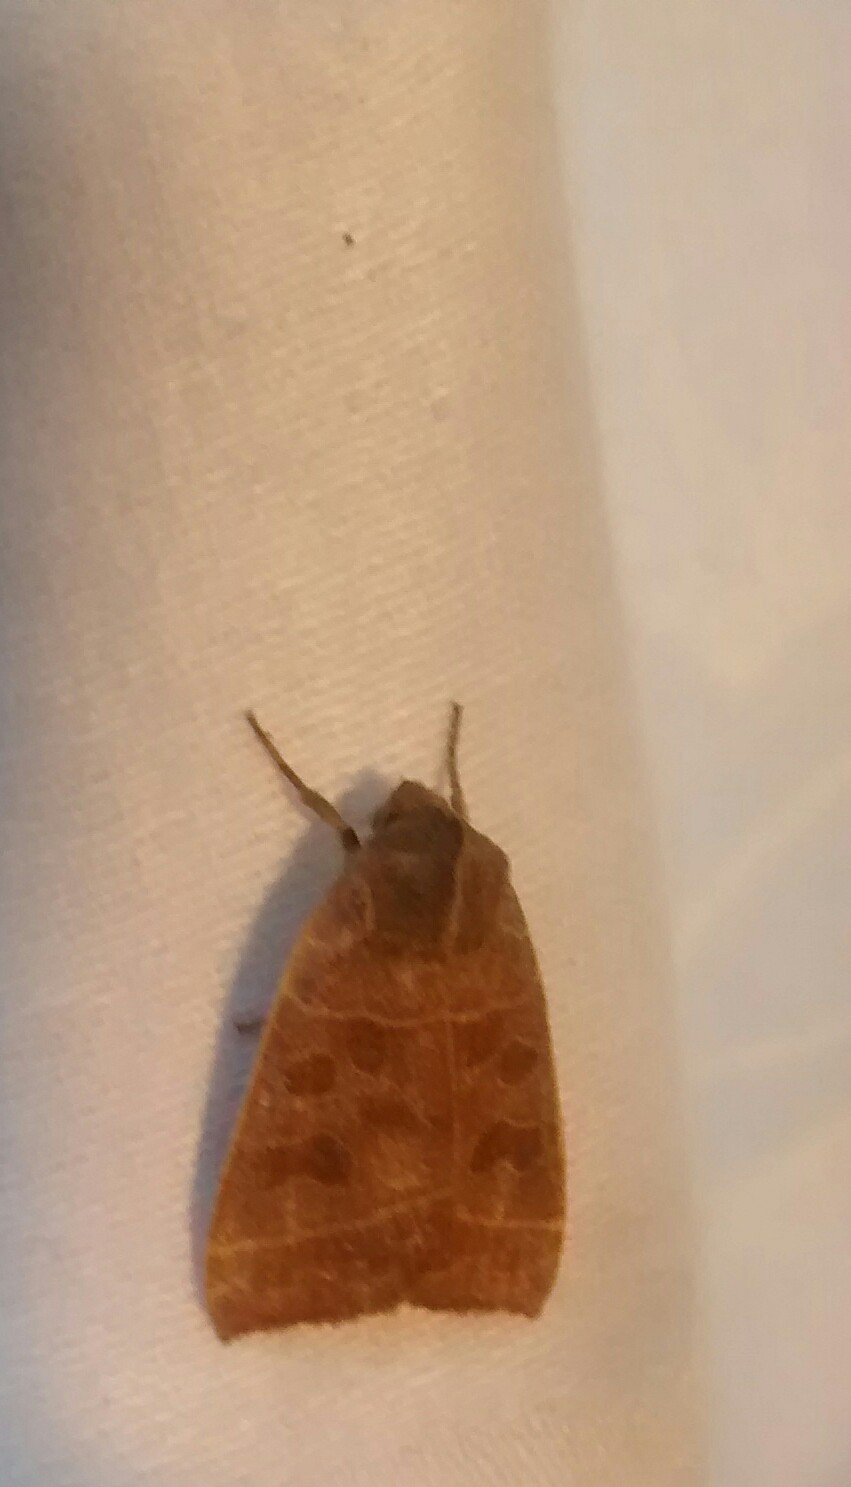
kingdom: Animalia
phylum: Arthropoda
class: Insecta
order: Lepidoptera
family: Noctuidae
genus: Ipimorpha
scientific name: Ipimorpha pleonectusa
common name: Even-lined sallow
